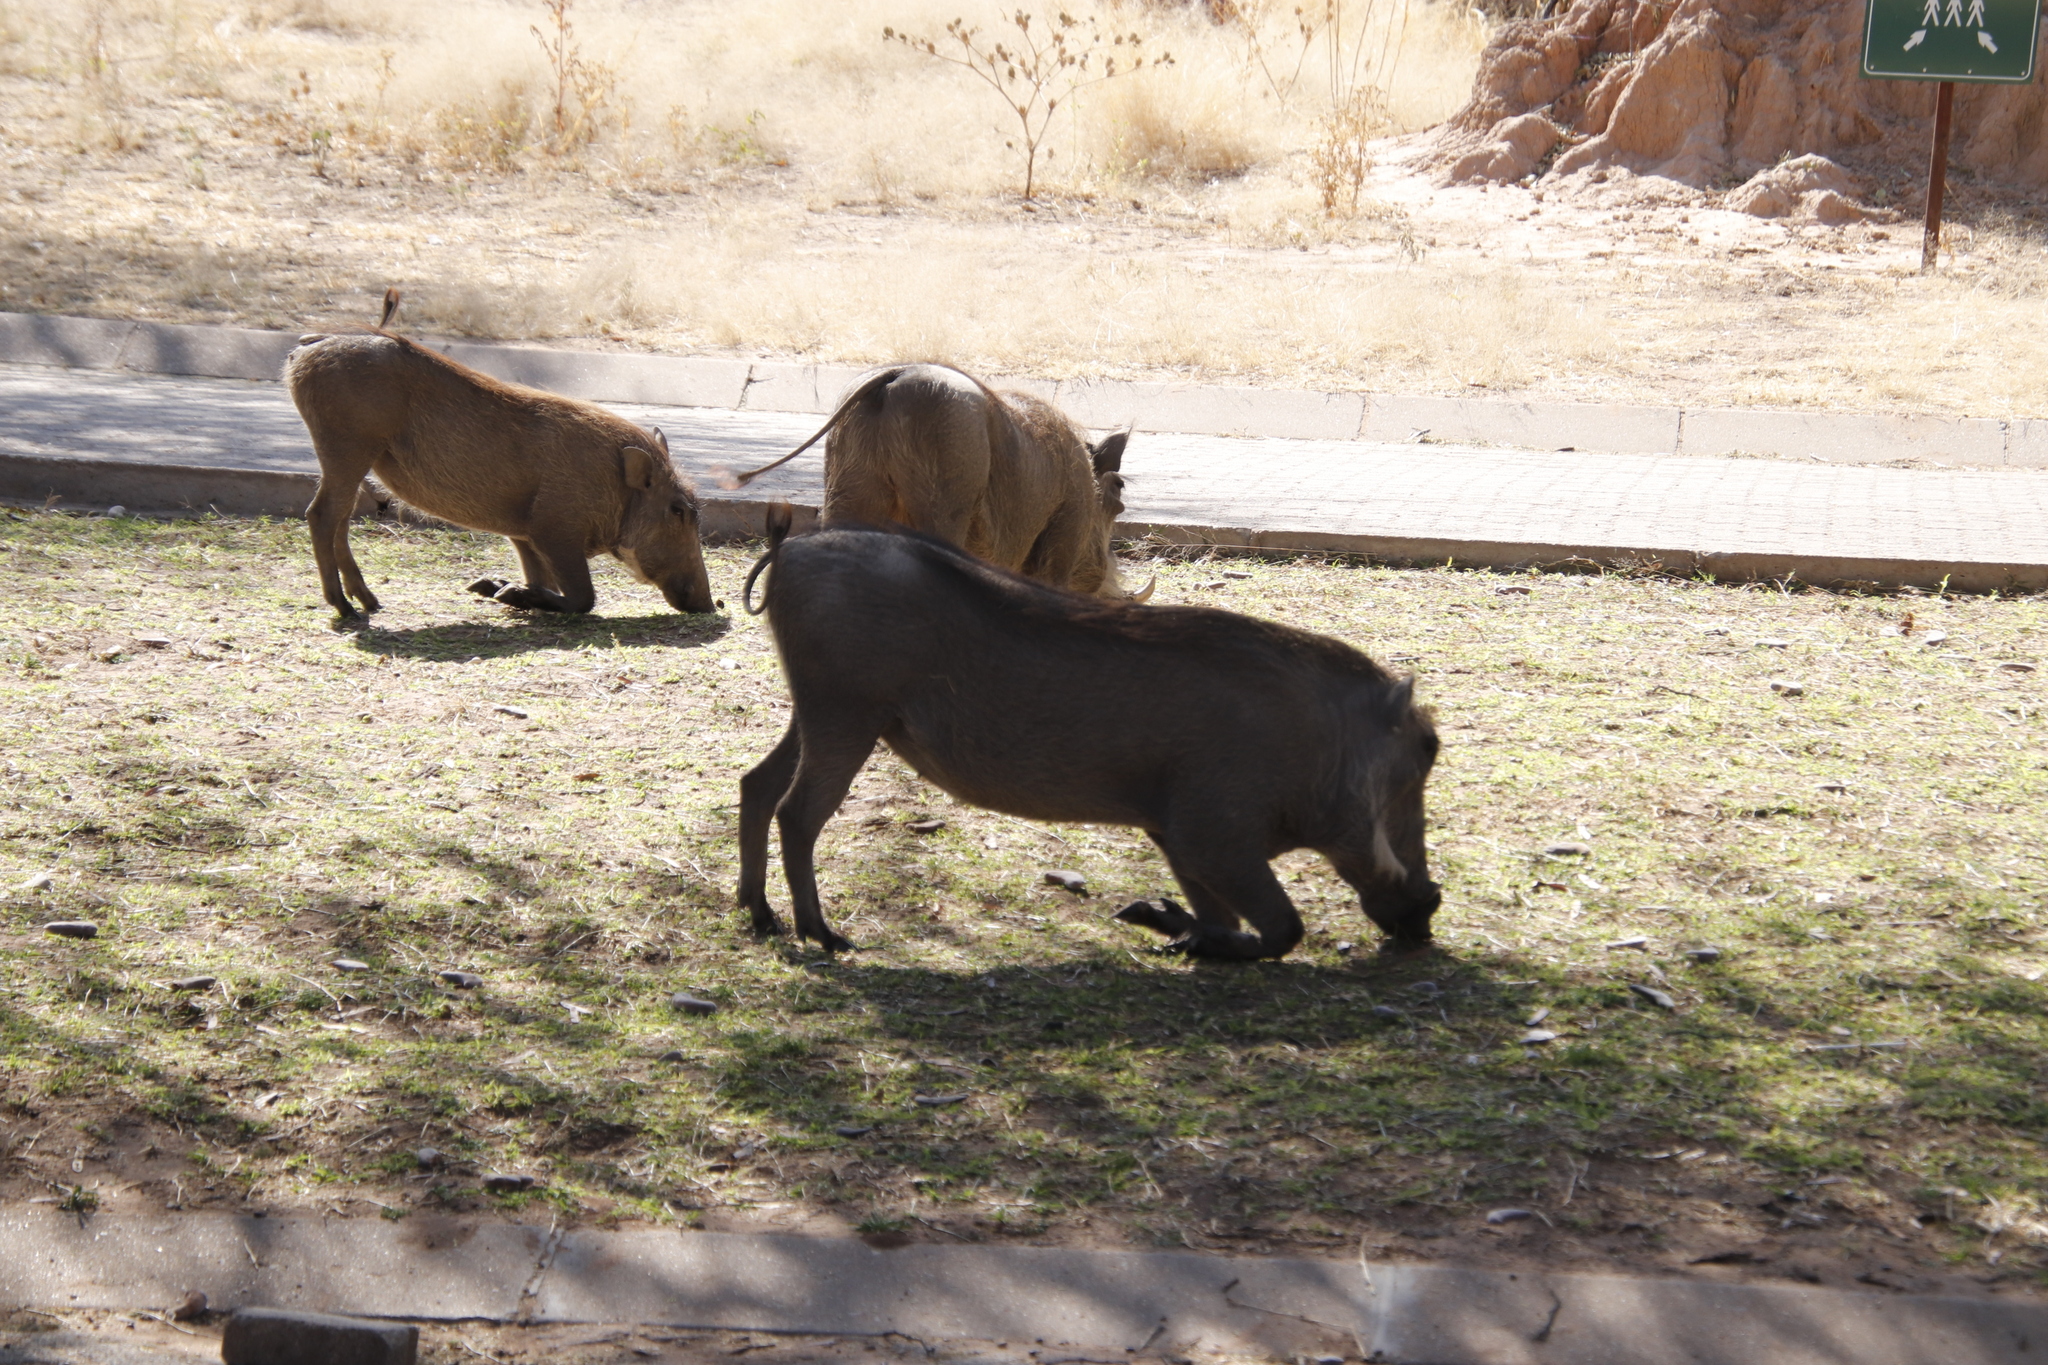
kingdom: Animalia
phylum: Chordata
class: Mammalia
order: Artiodactyla
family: Suidae
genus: Phacochoerus
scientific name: Phacochoerus africanus
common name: Common warthog
